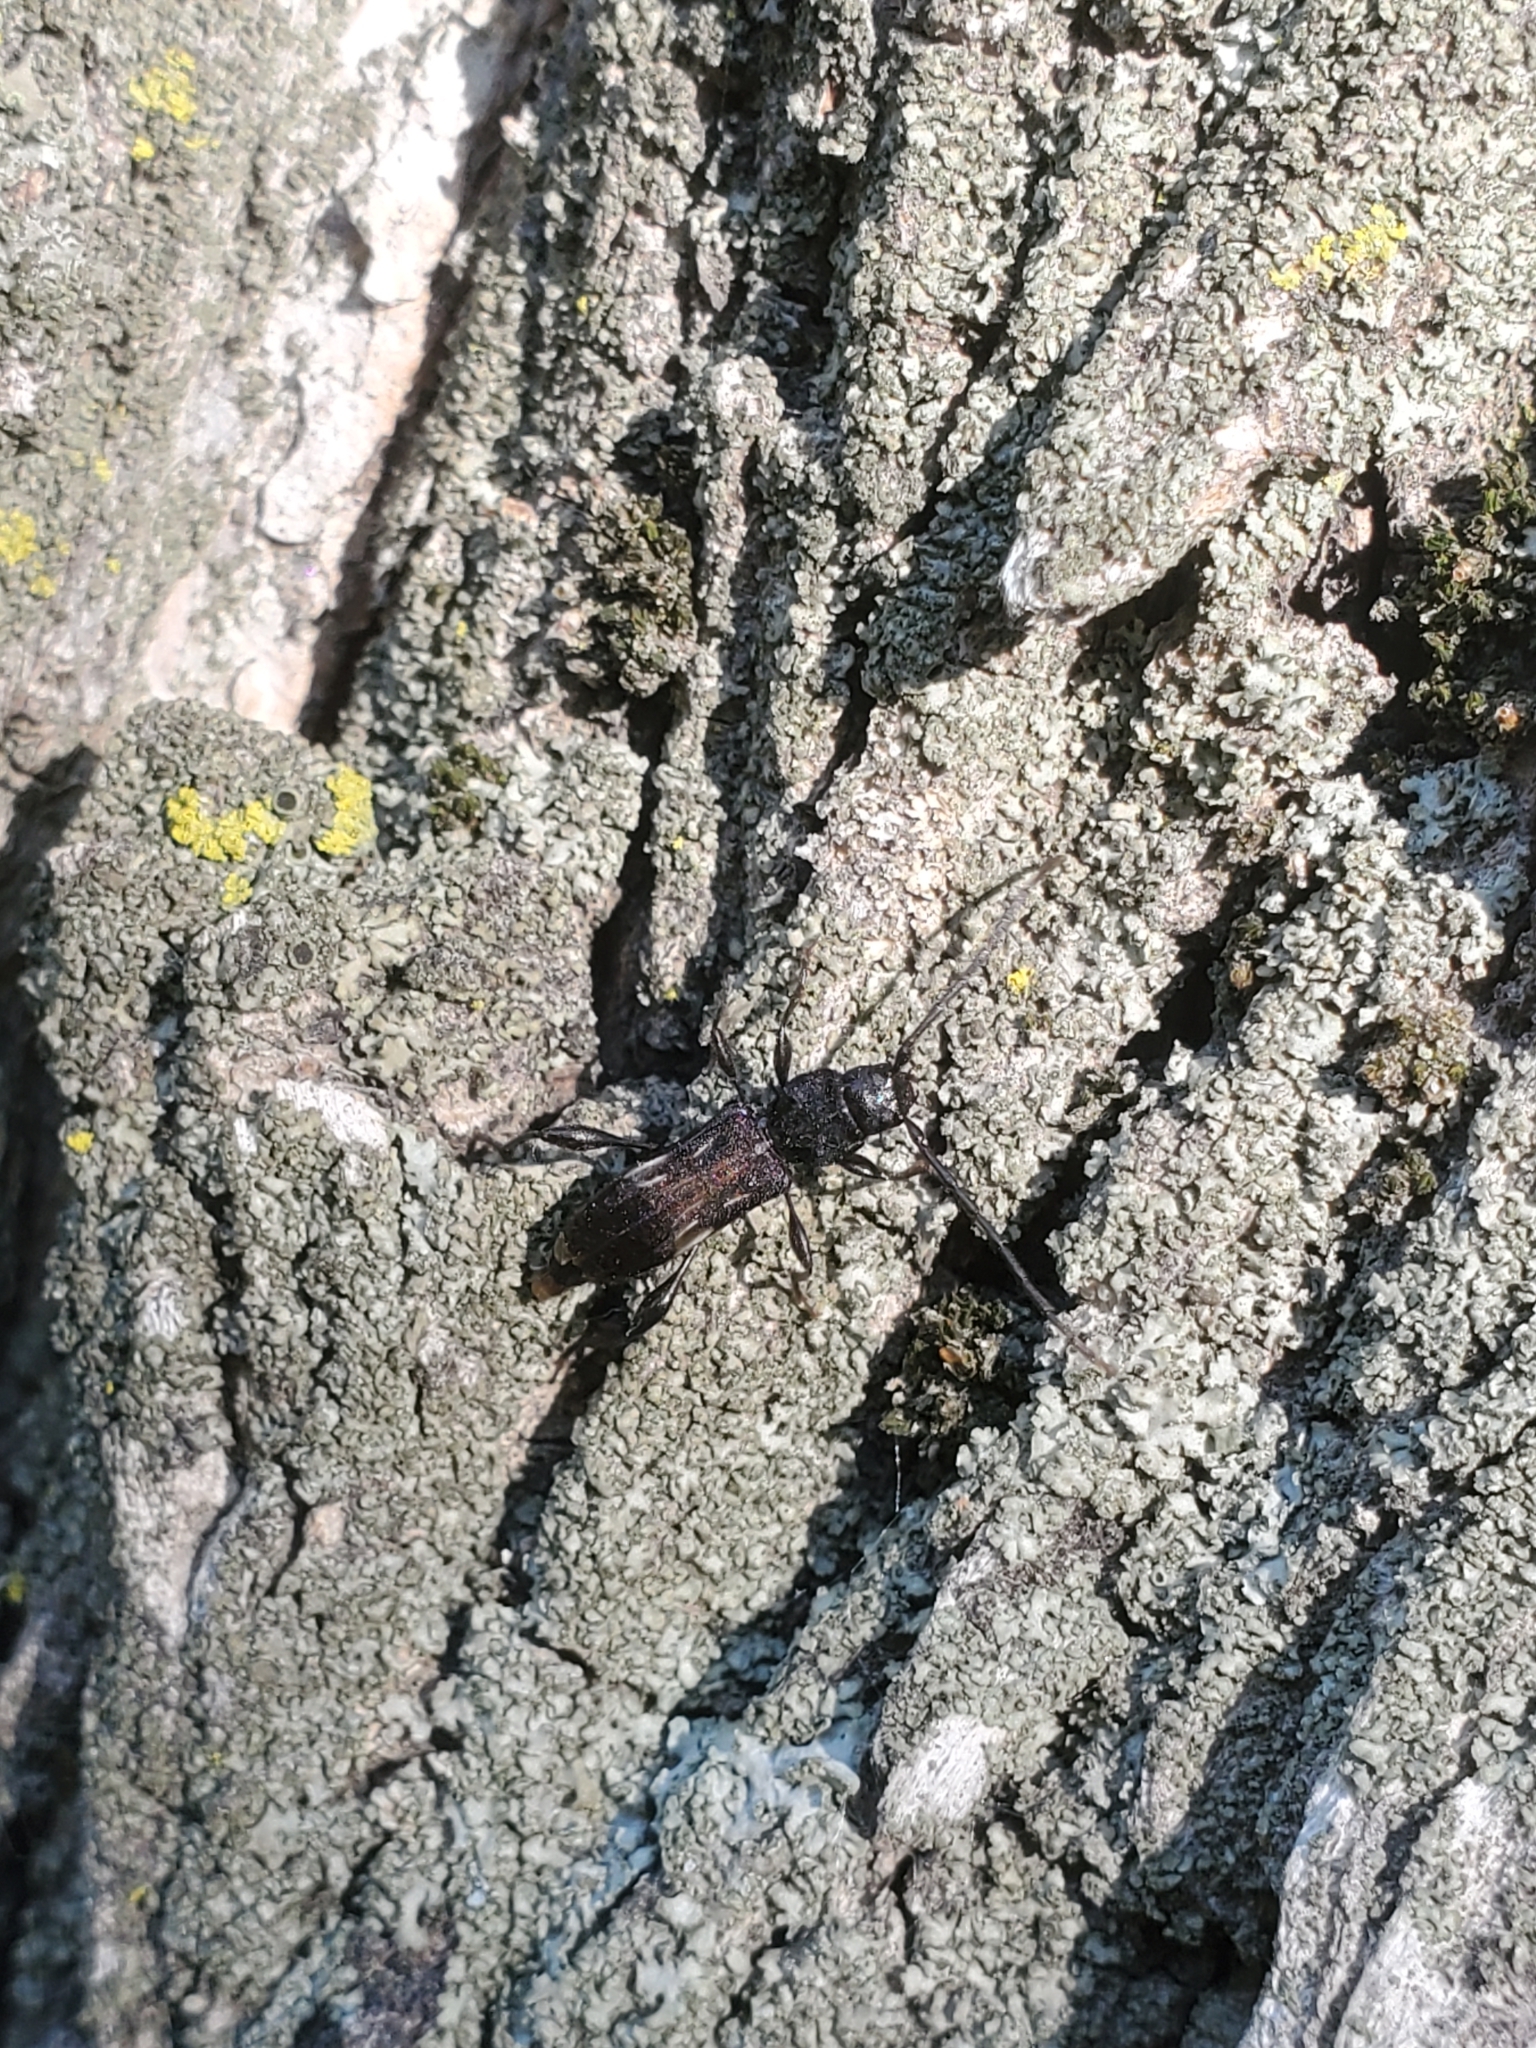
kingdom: Animalia
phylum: Arthropoda
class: Insecta
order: Coleoptera
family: Cerambycidae
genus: Physocnemum
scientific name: Physocnemum brevilineum
